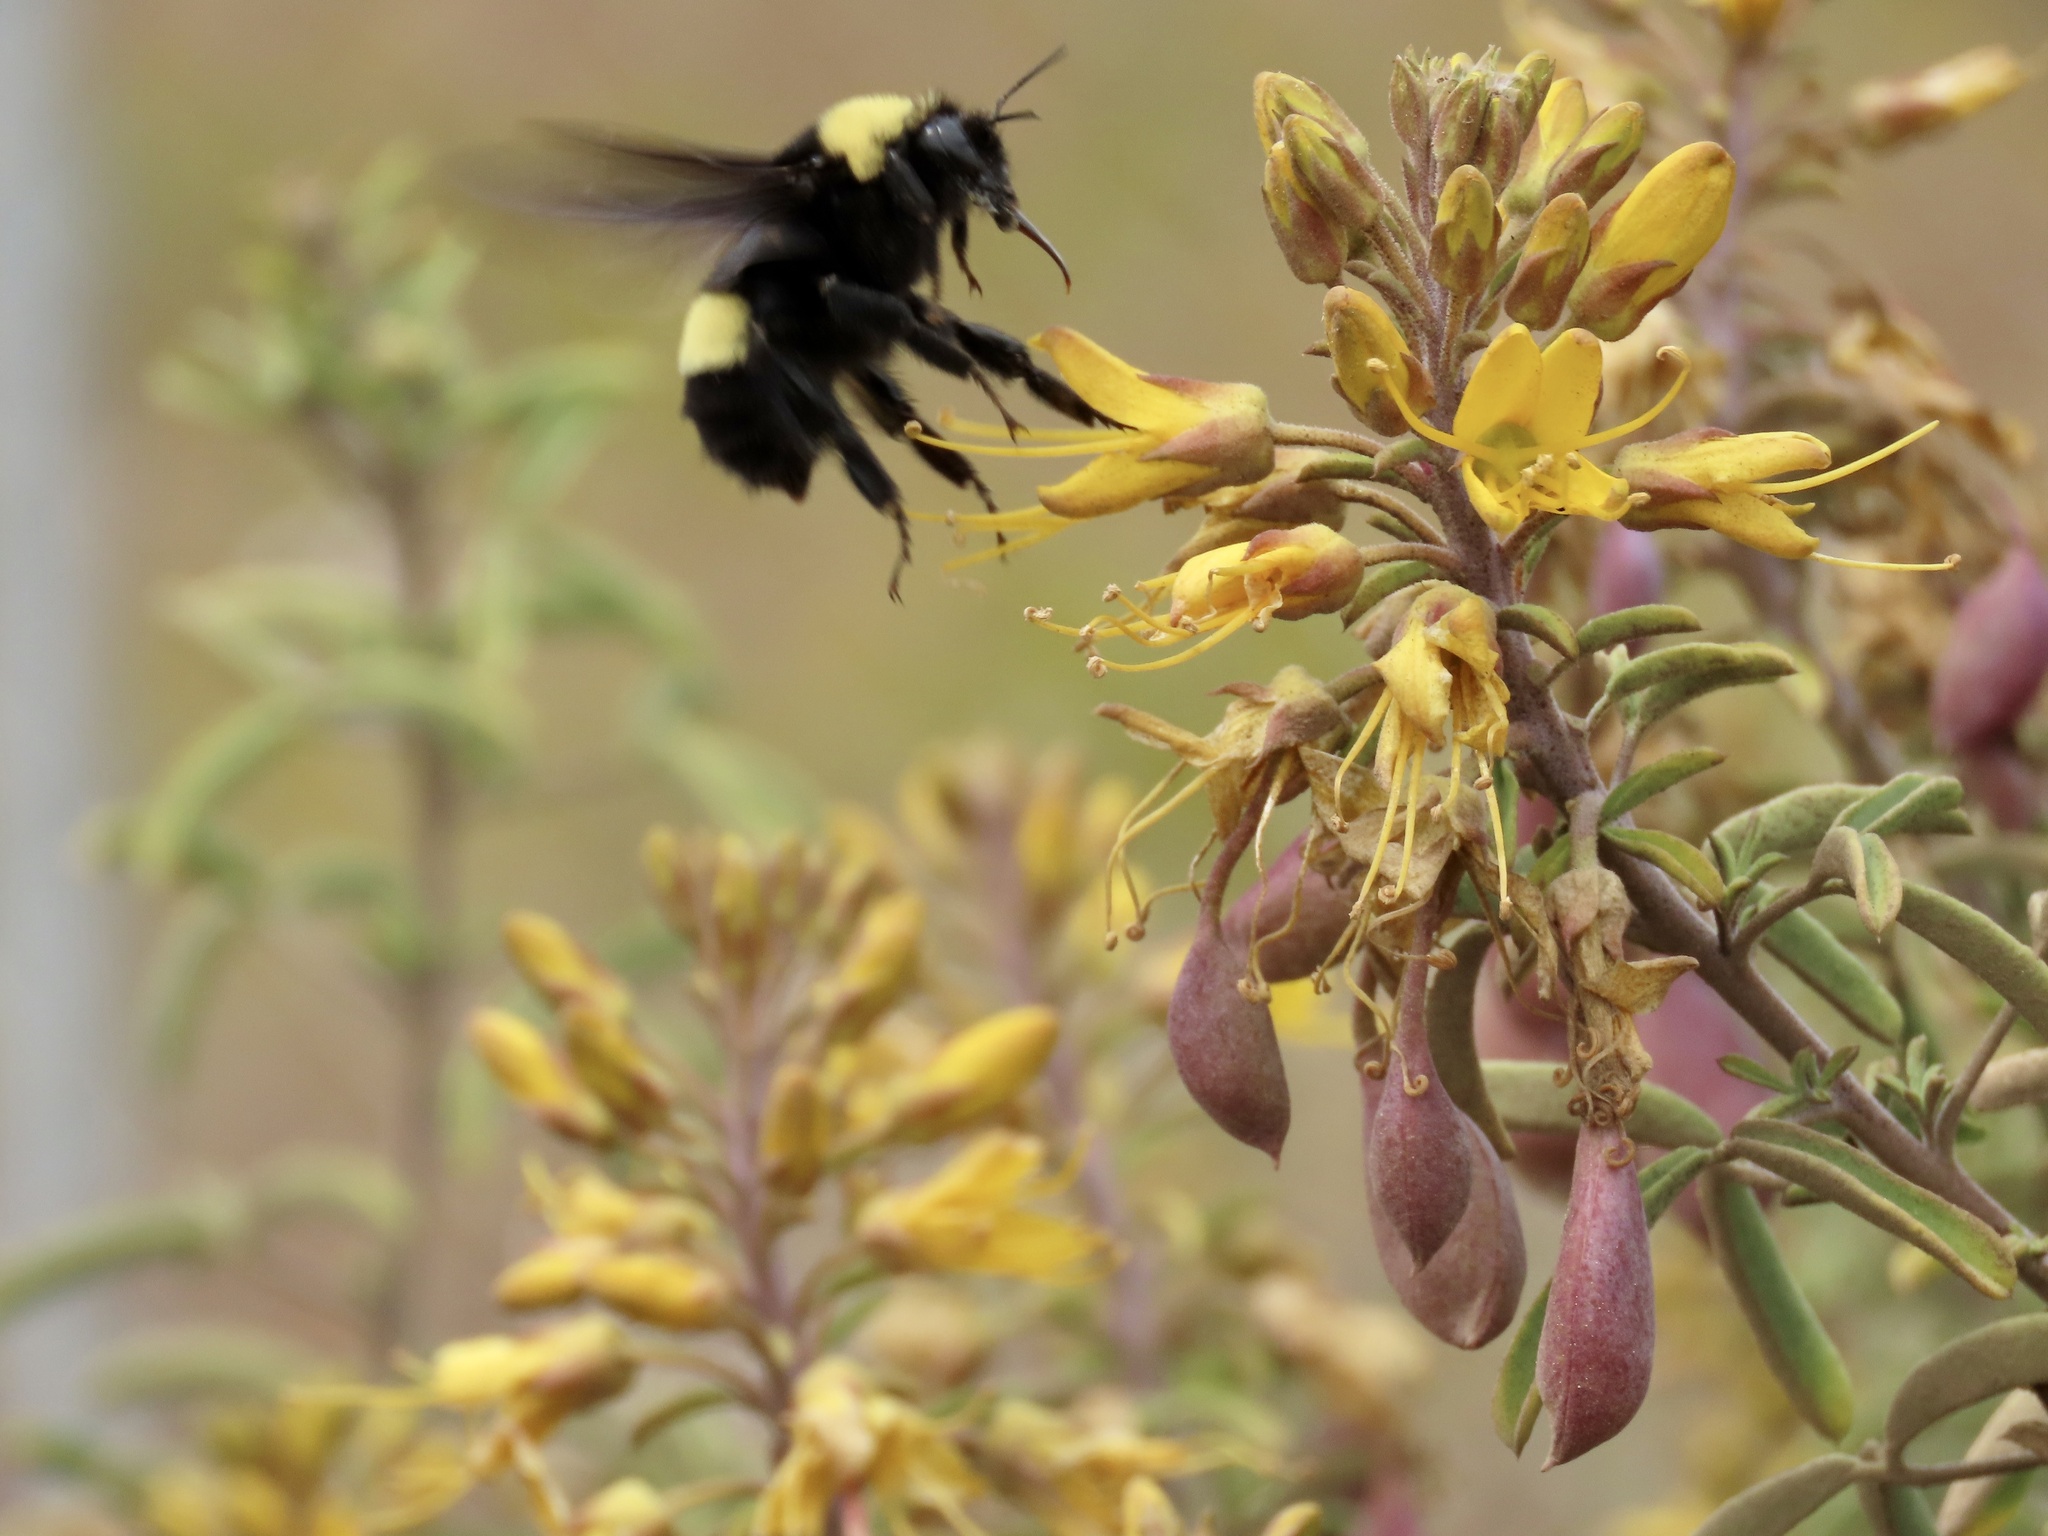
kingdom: Animalia
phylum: Arthropoda
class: Insecta
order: Hymenoptera
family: Apidae
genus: Bombus
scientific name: Bombus crotchii
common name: Crotch bumble bee
